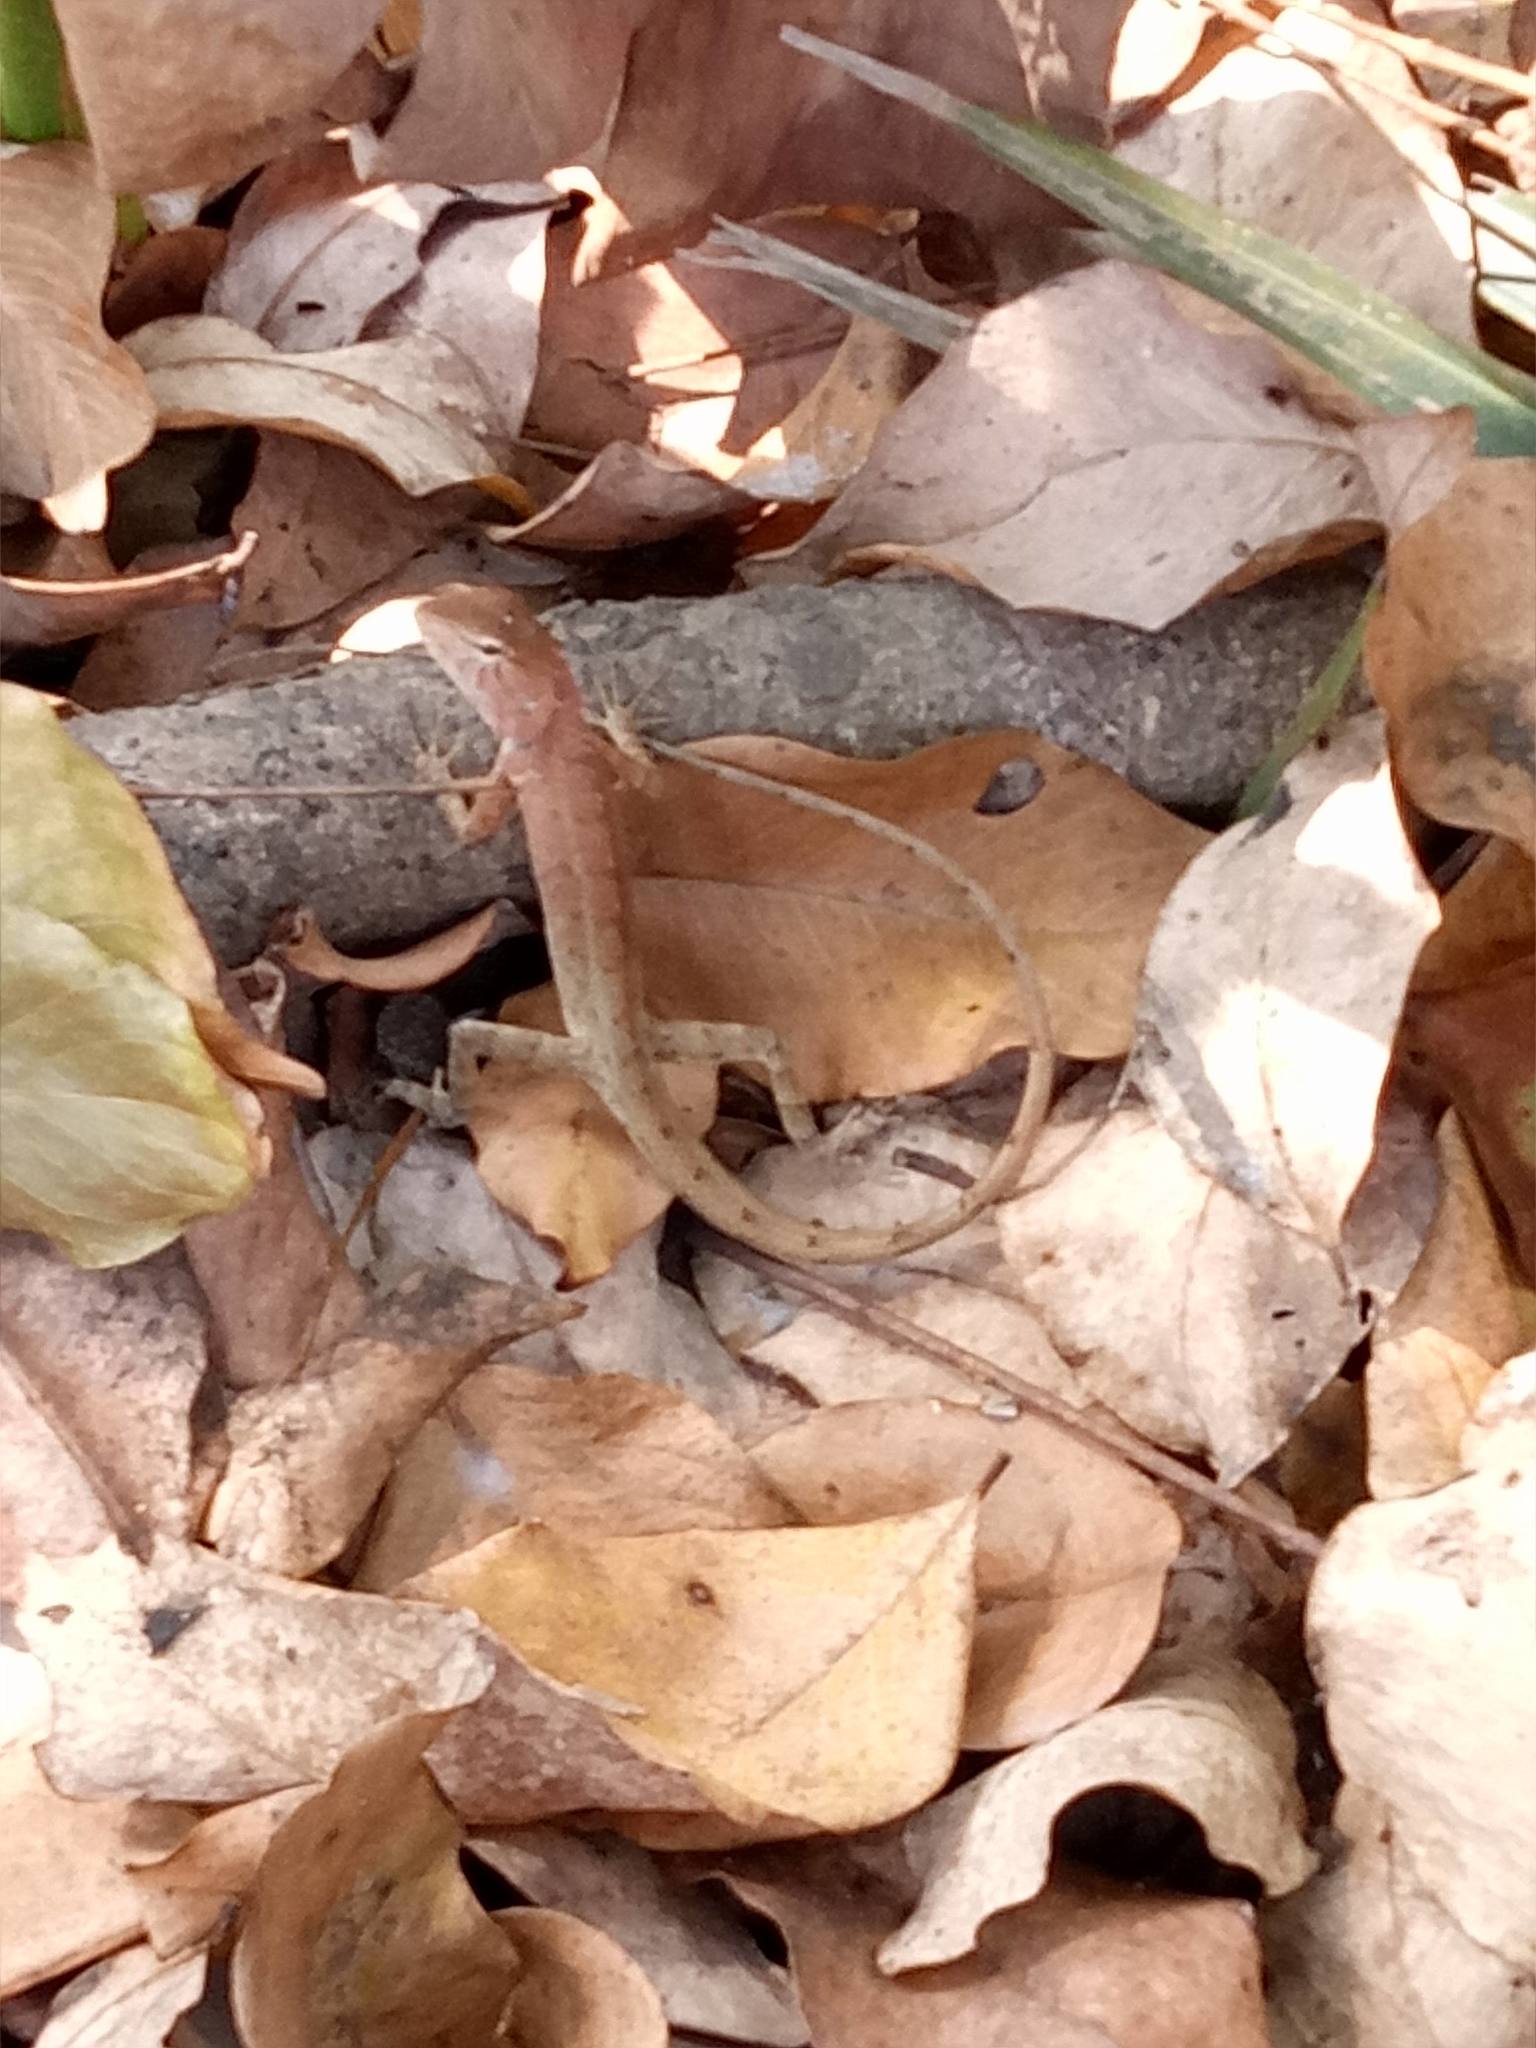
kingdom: Animalia
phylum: Chordata
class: Squamata
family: Agamidae
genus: Calotes
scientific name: Calotes versicolor
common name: Oriental garden lizard
